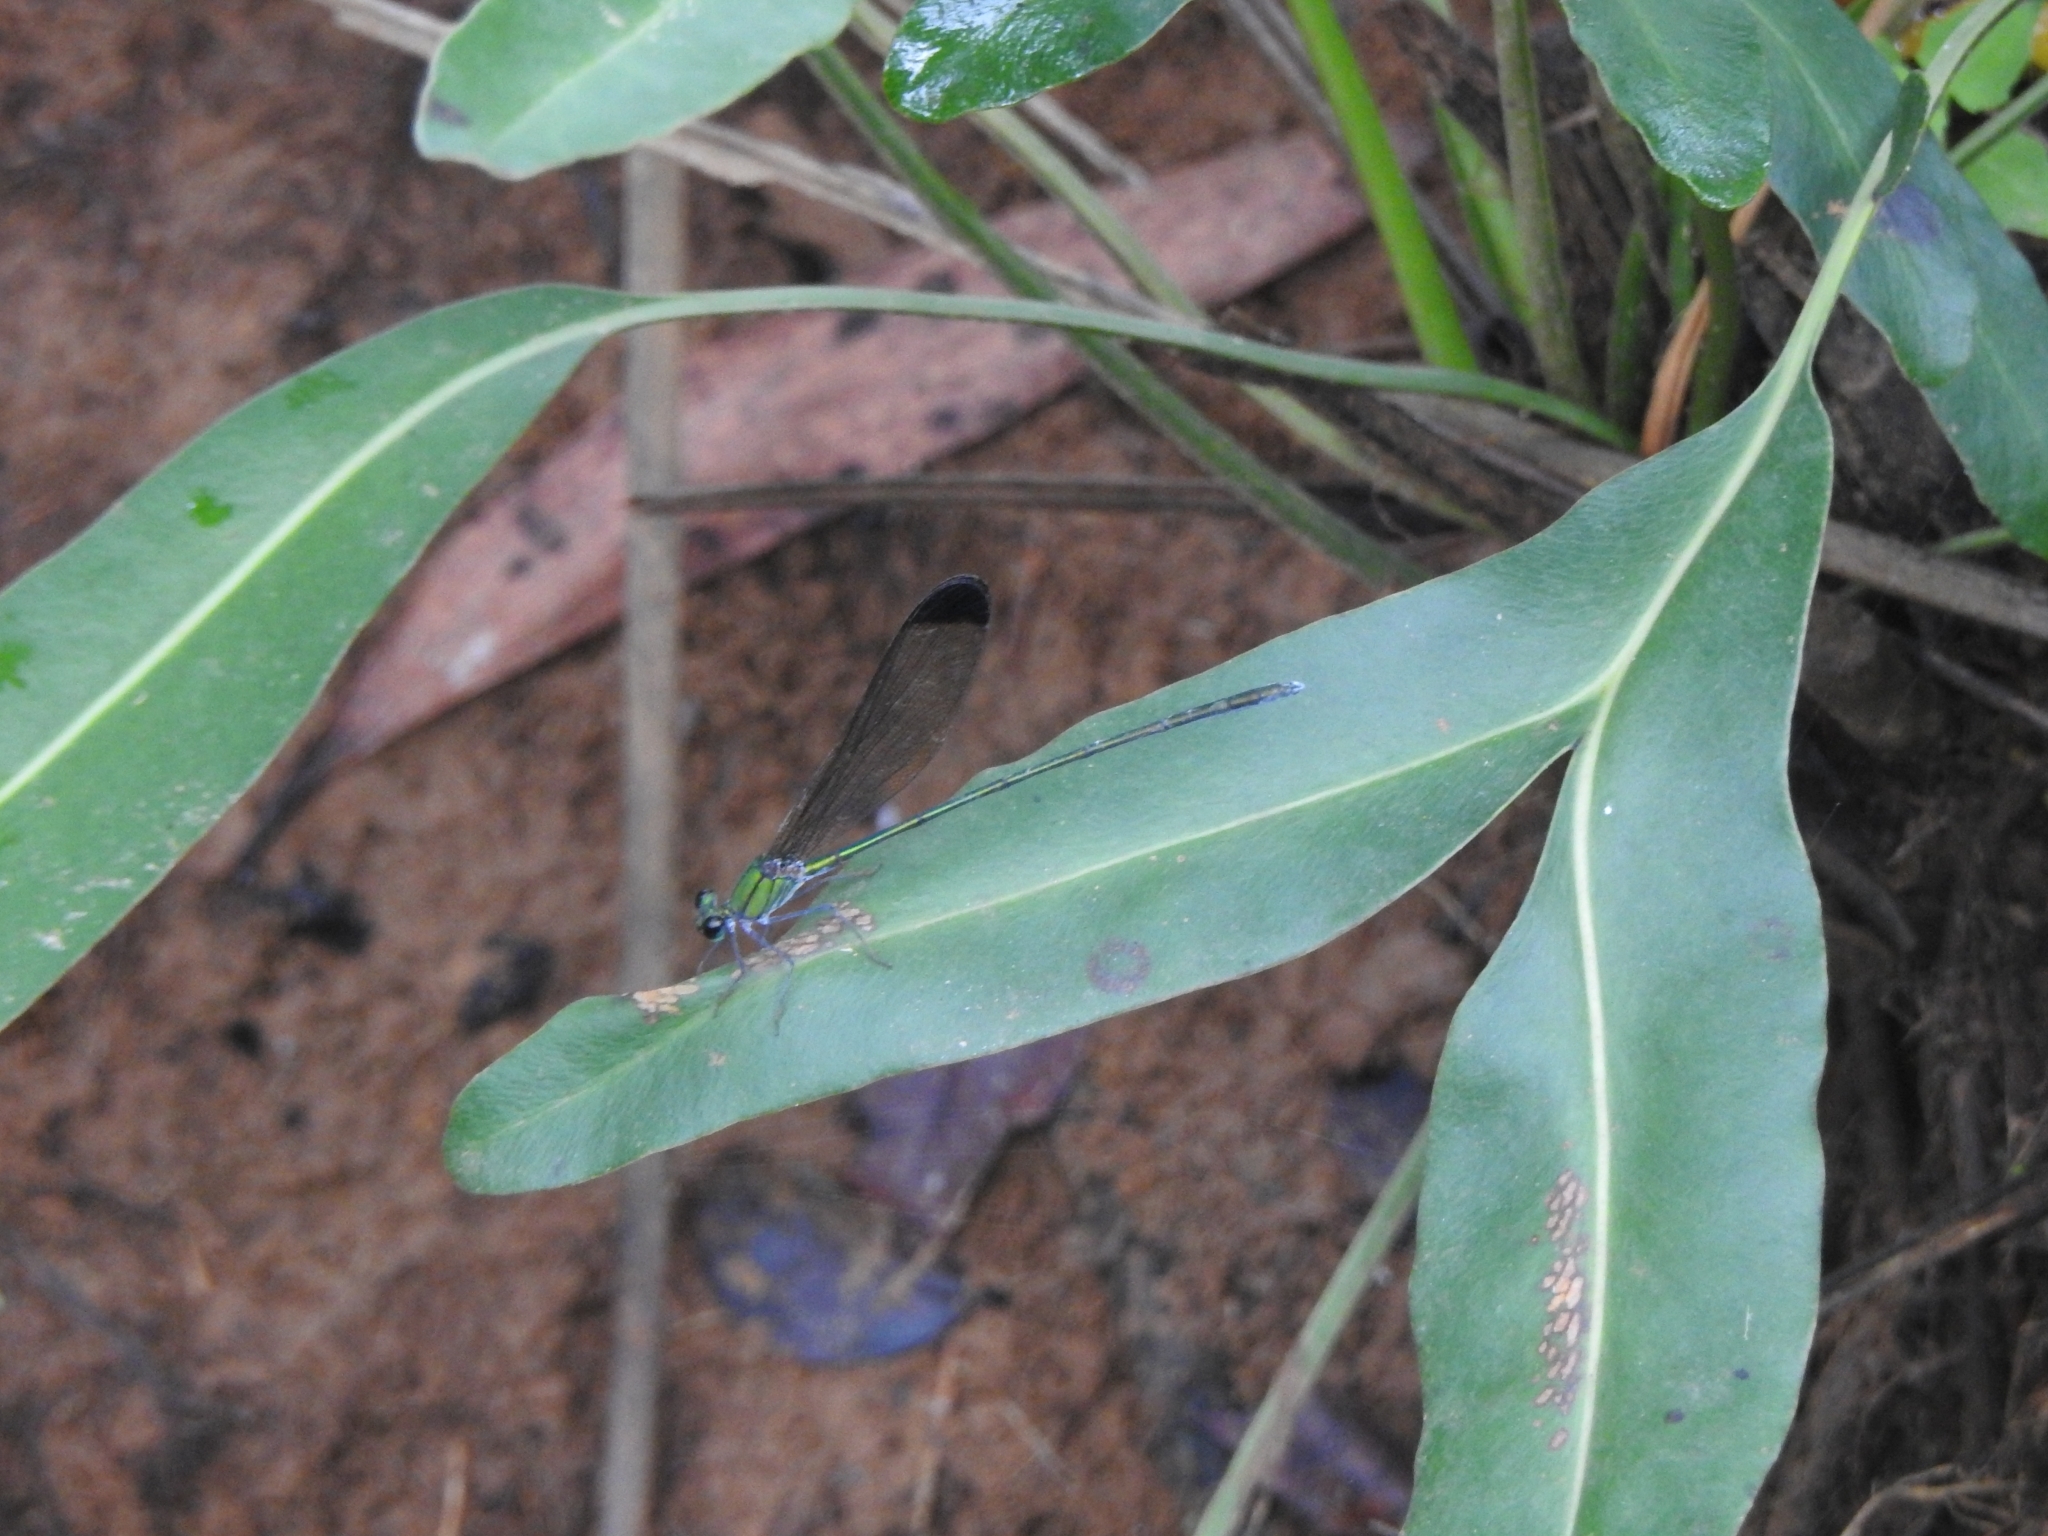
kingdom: Animalia
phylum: Arthropoda
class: Insecta
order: Odonata
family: Calopterygidae
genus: Vestalis
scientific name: Vestalis apicalis
